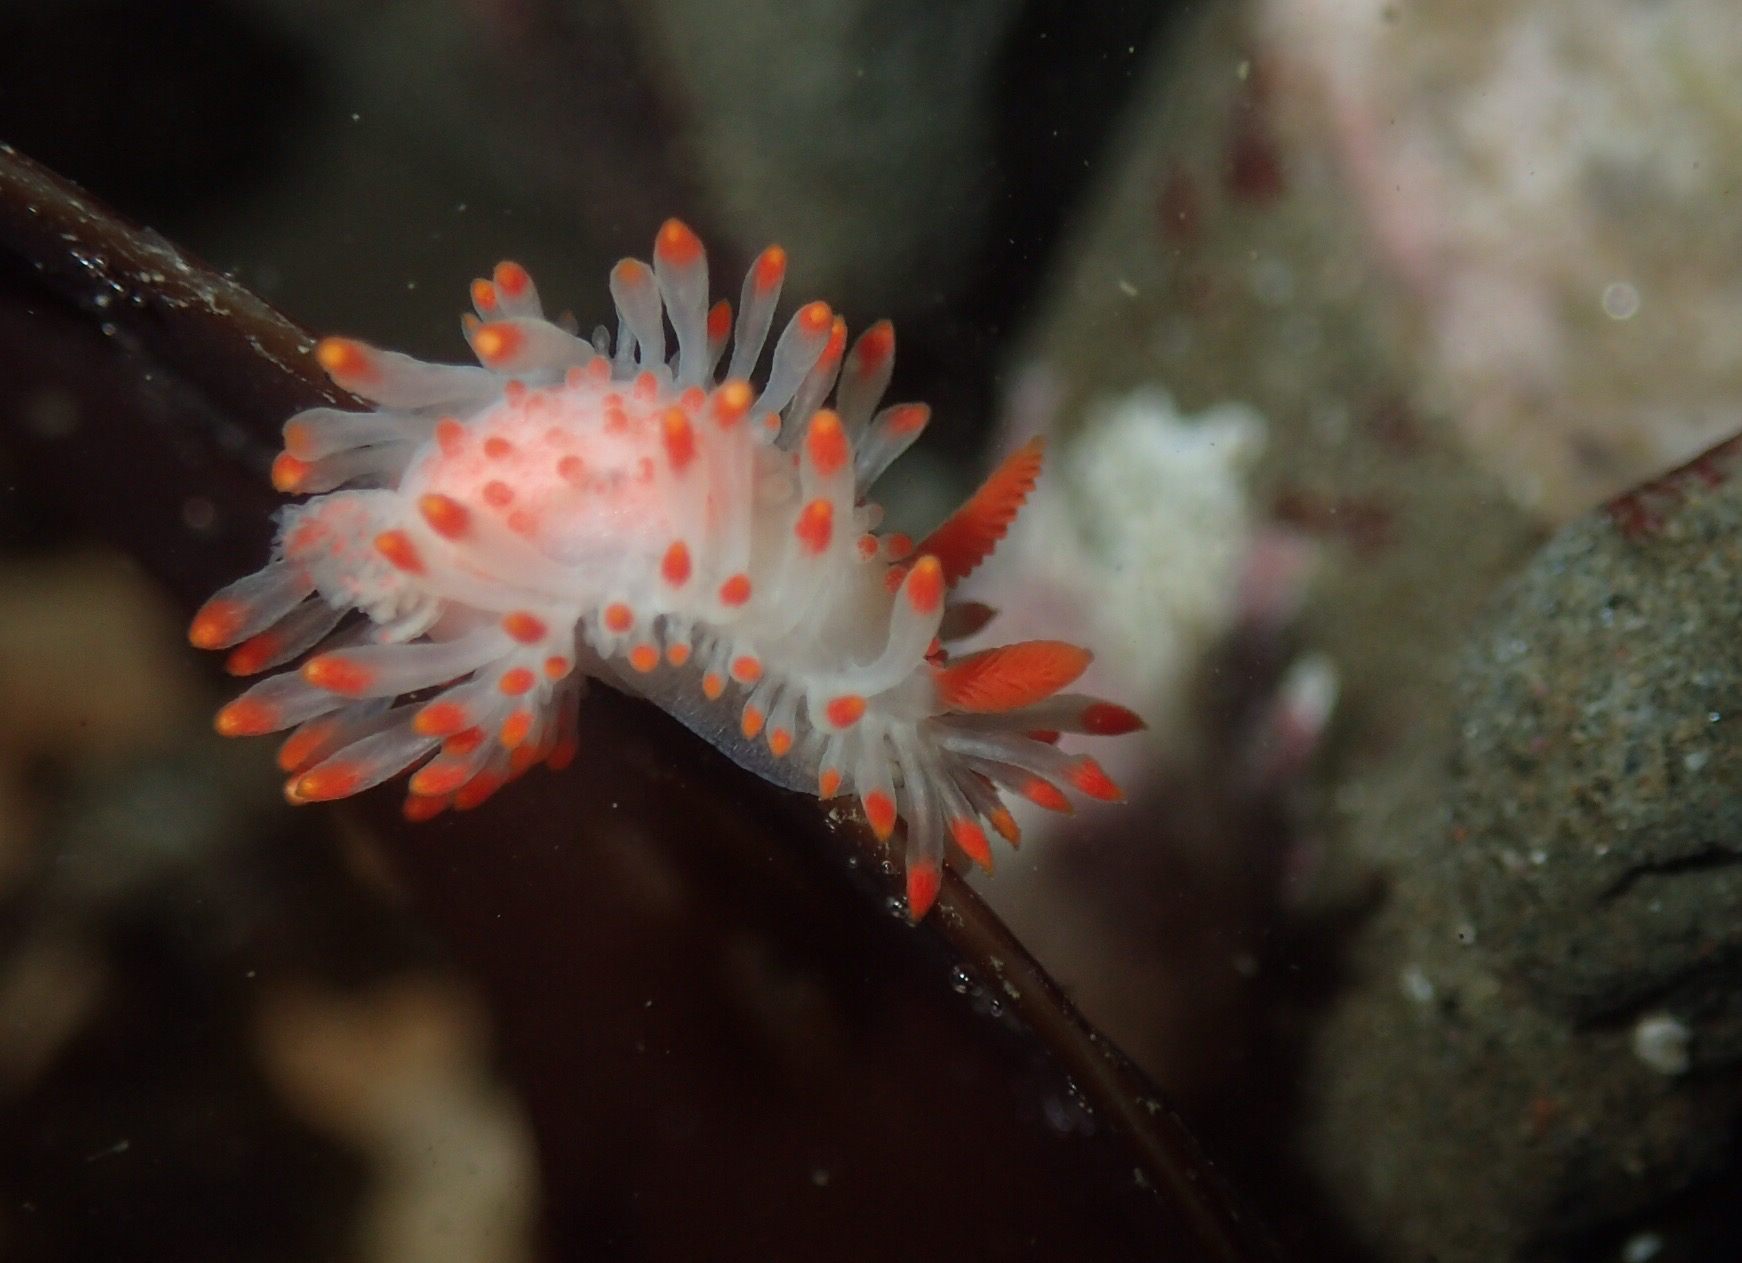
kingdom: Animalia
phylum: Mollusca
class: Gastropoda
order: Nudibranchia
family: Polyceridae
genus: Limacia
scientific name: Limacia cockerelli
